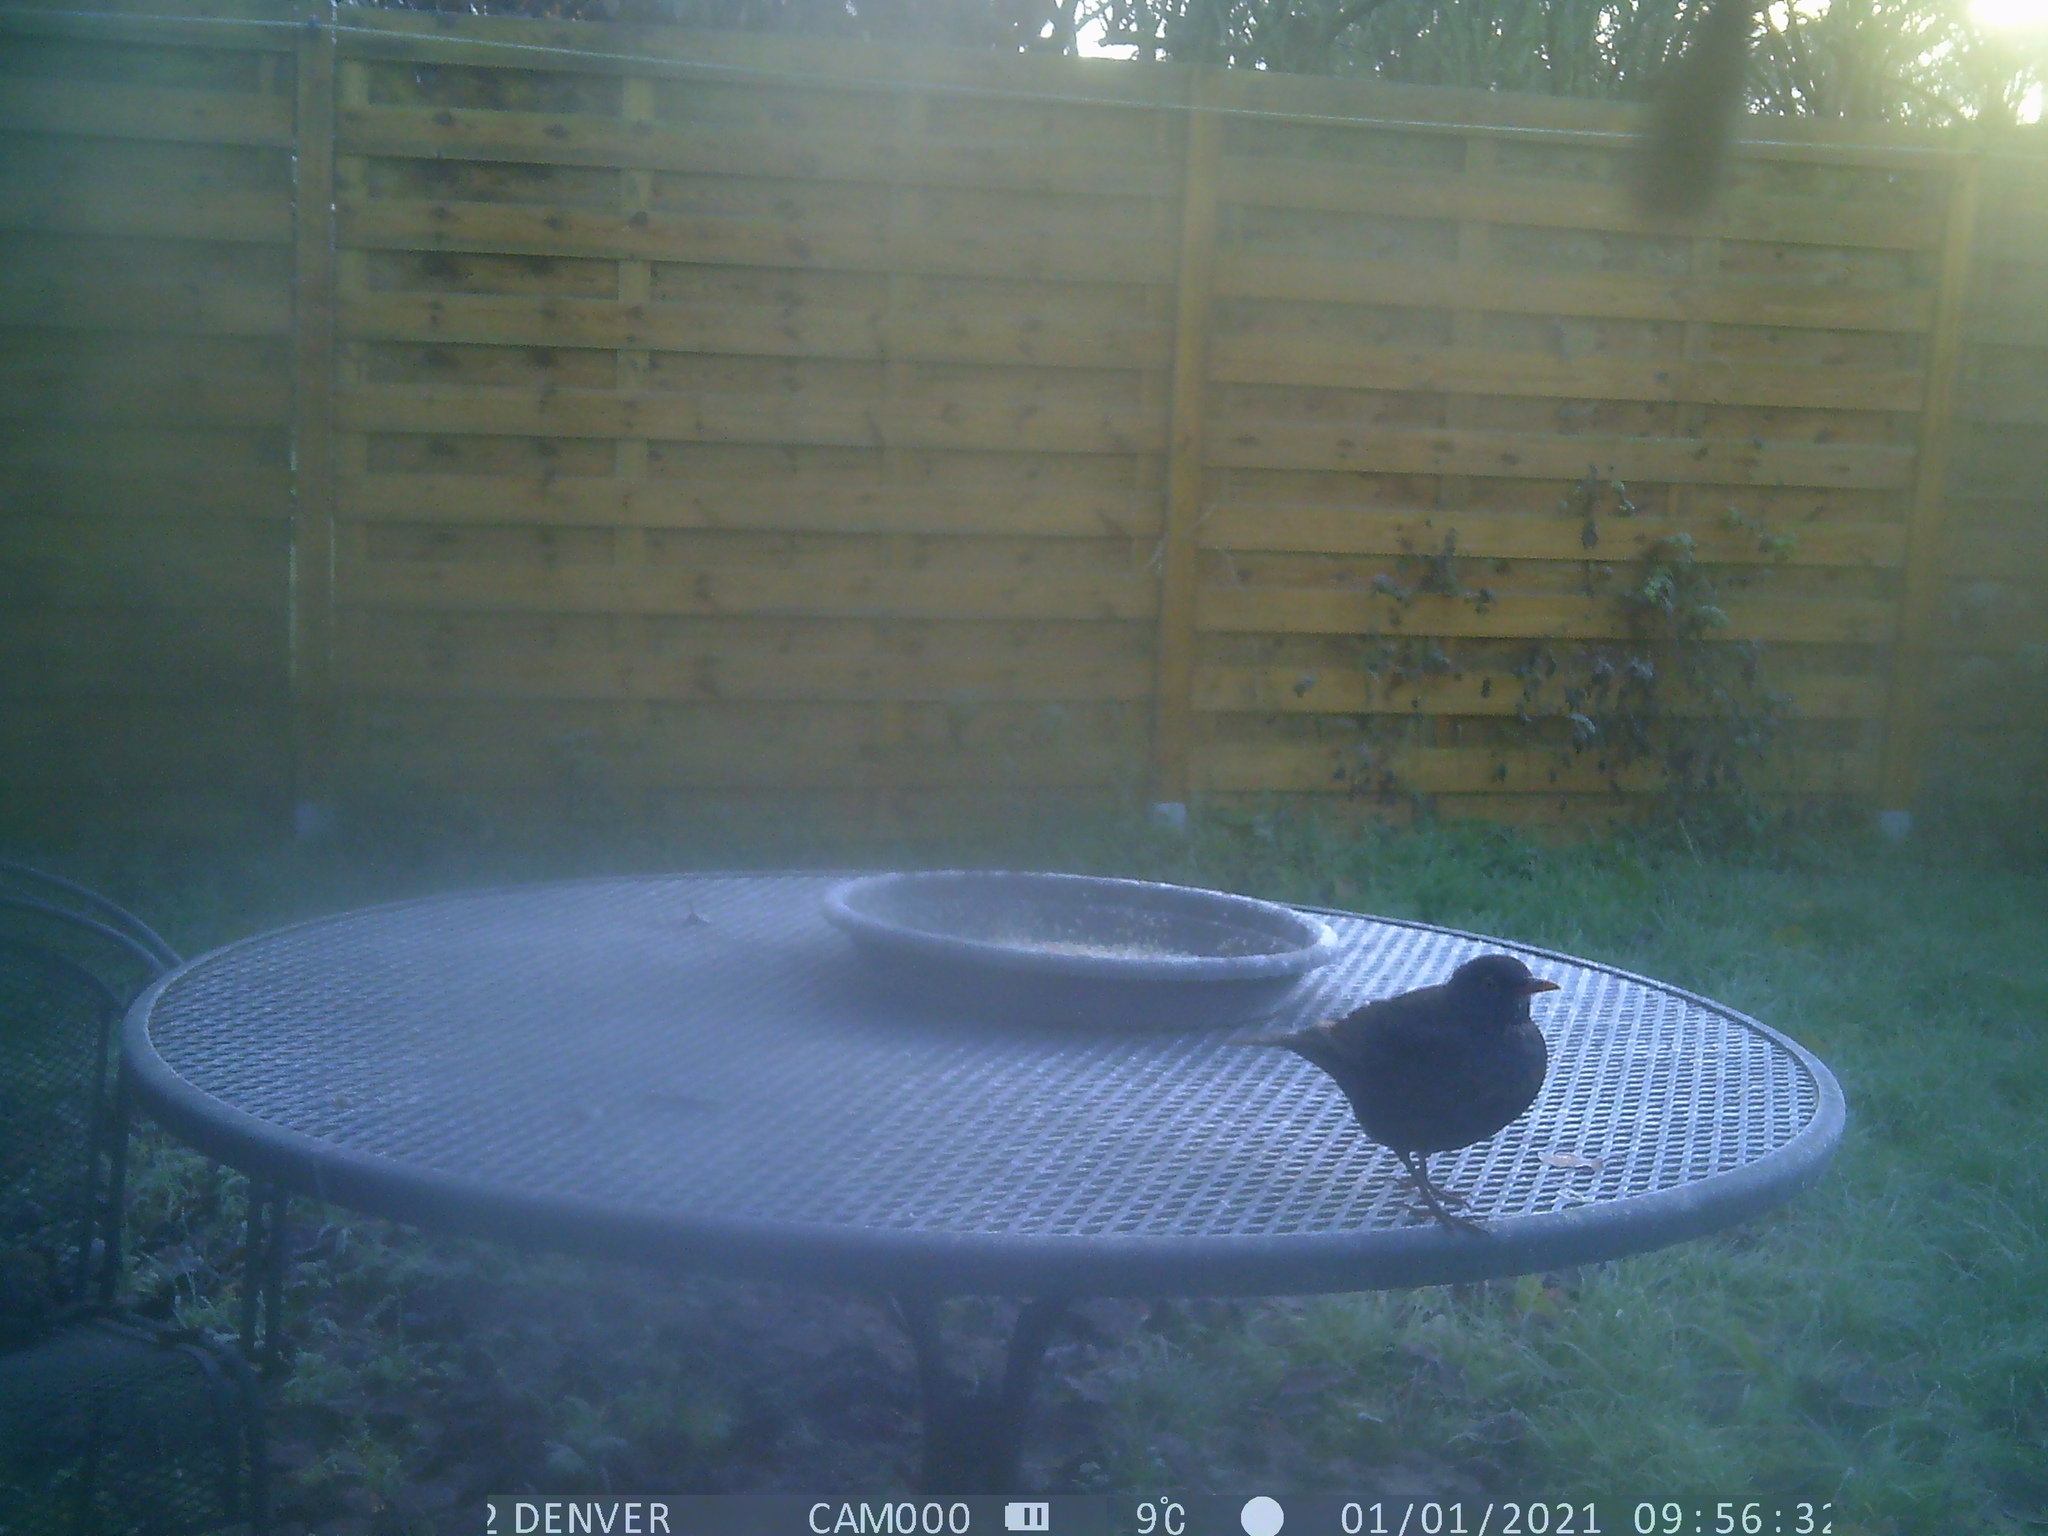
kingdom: Animalia
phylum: Chordata
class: Aves
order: Passeriformes
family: Turdidae
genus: Turdus
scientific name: Turdus merula
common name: Common blackbird
